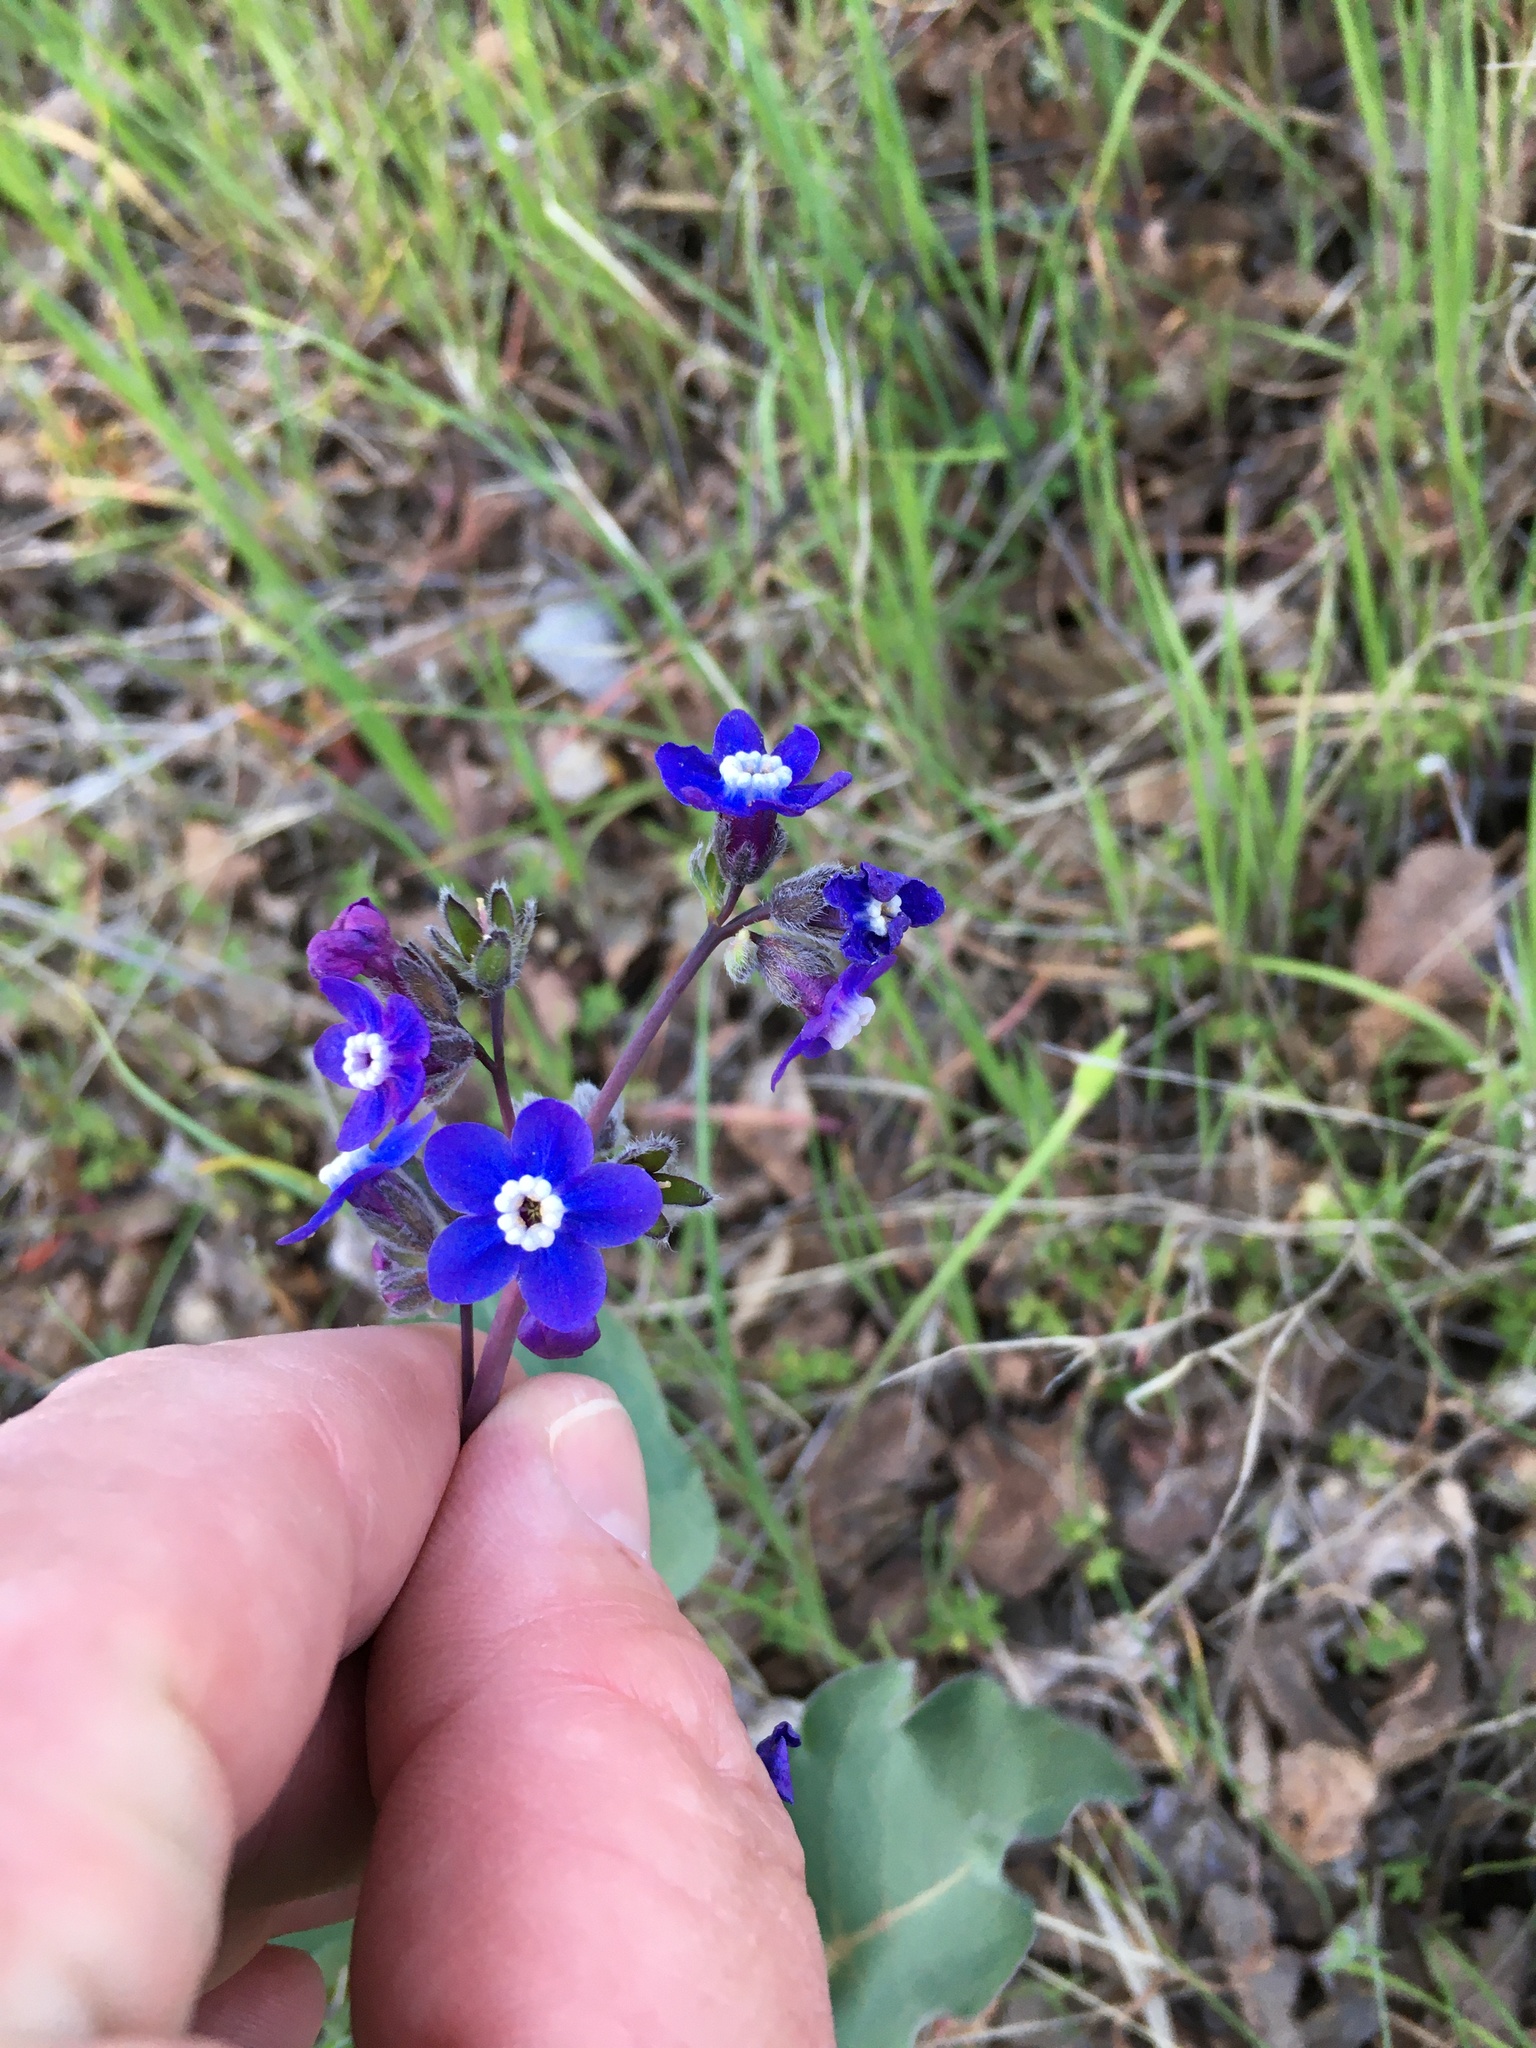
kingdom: Plantae
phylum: Tracheophyta
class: Magnoliopsida
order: Boraginales
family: Boraginaceae
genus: Adelinia
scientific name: Adelinia grande
